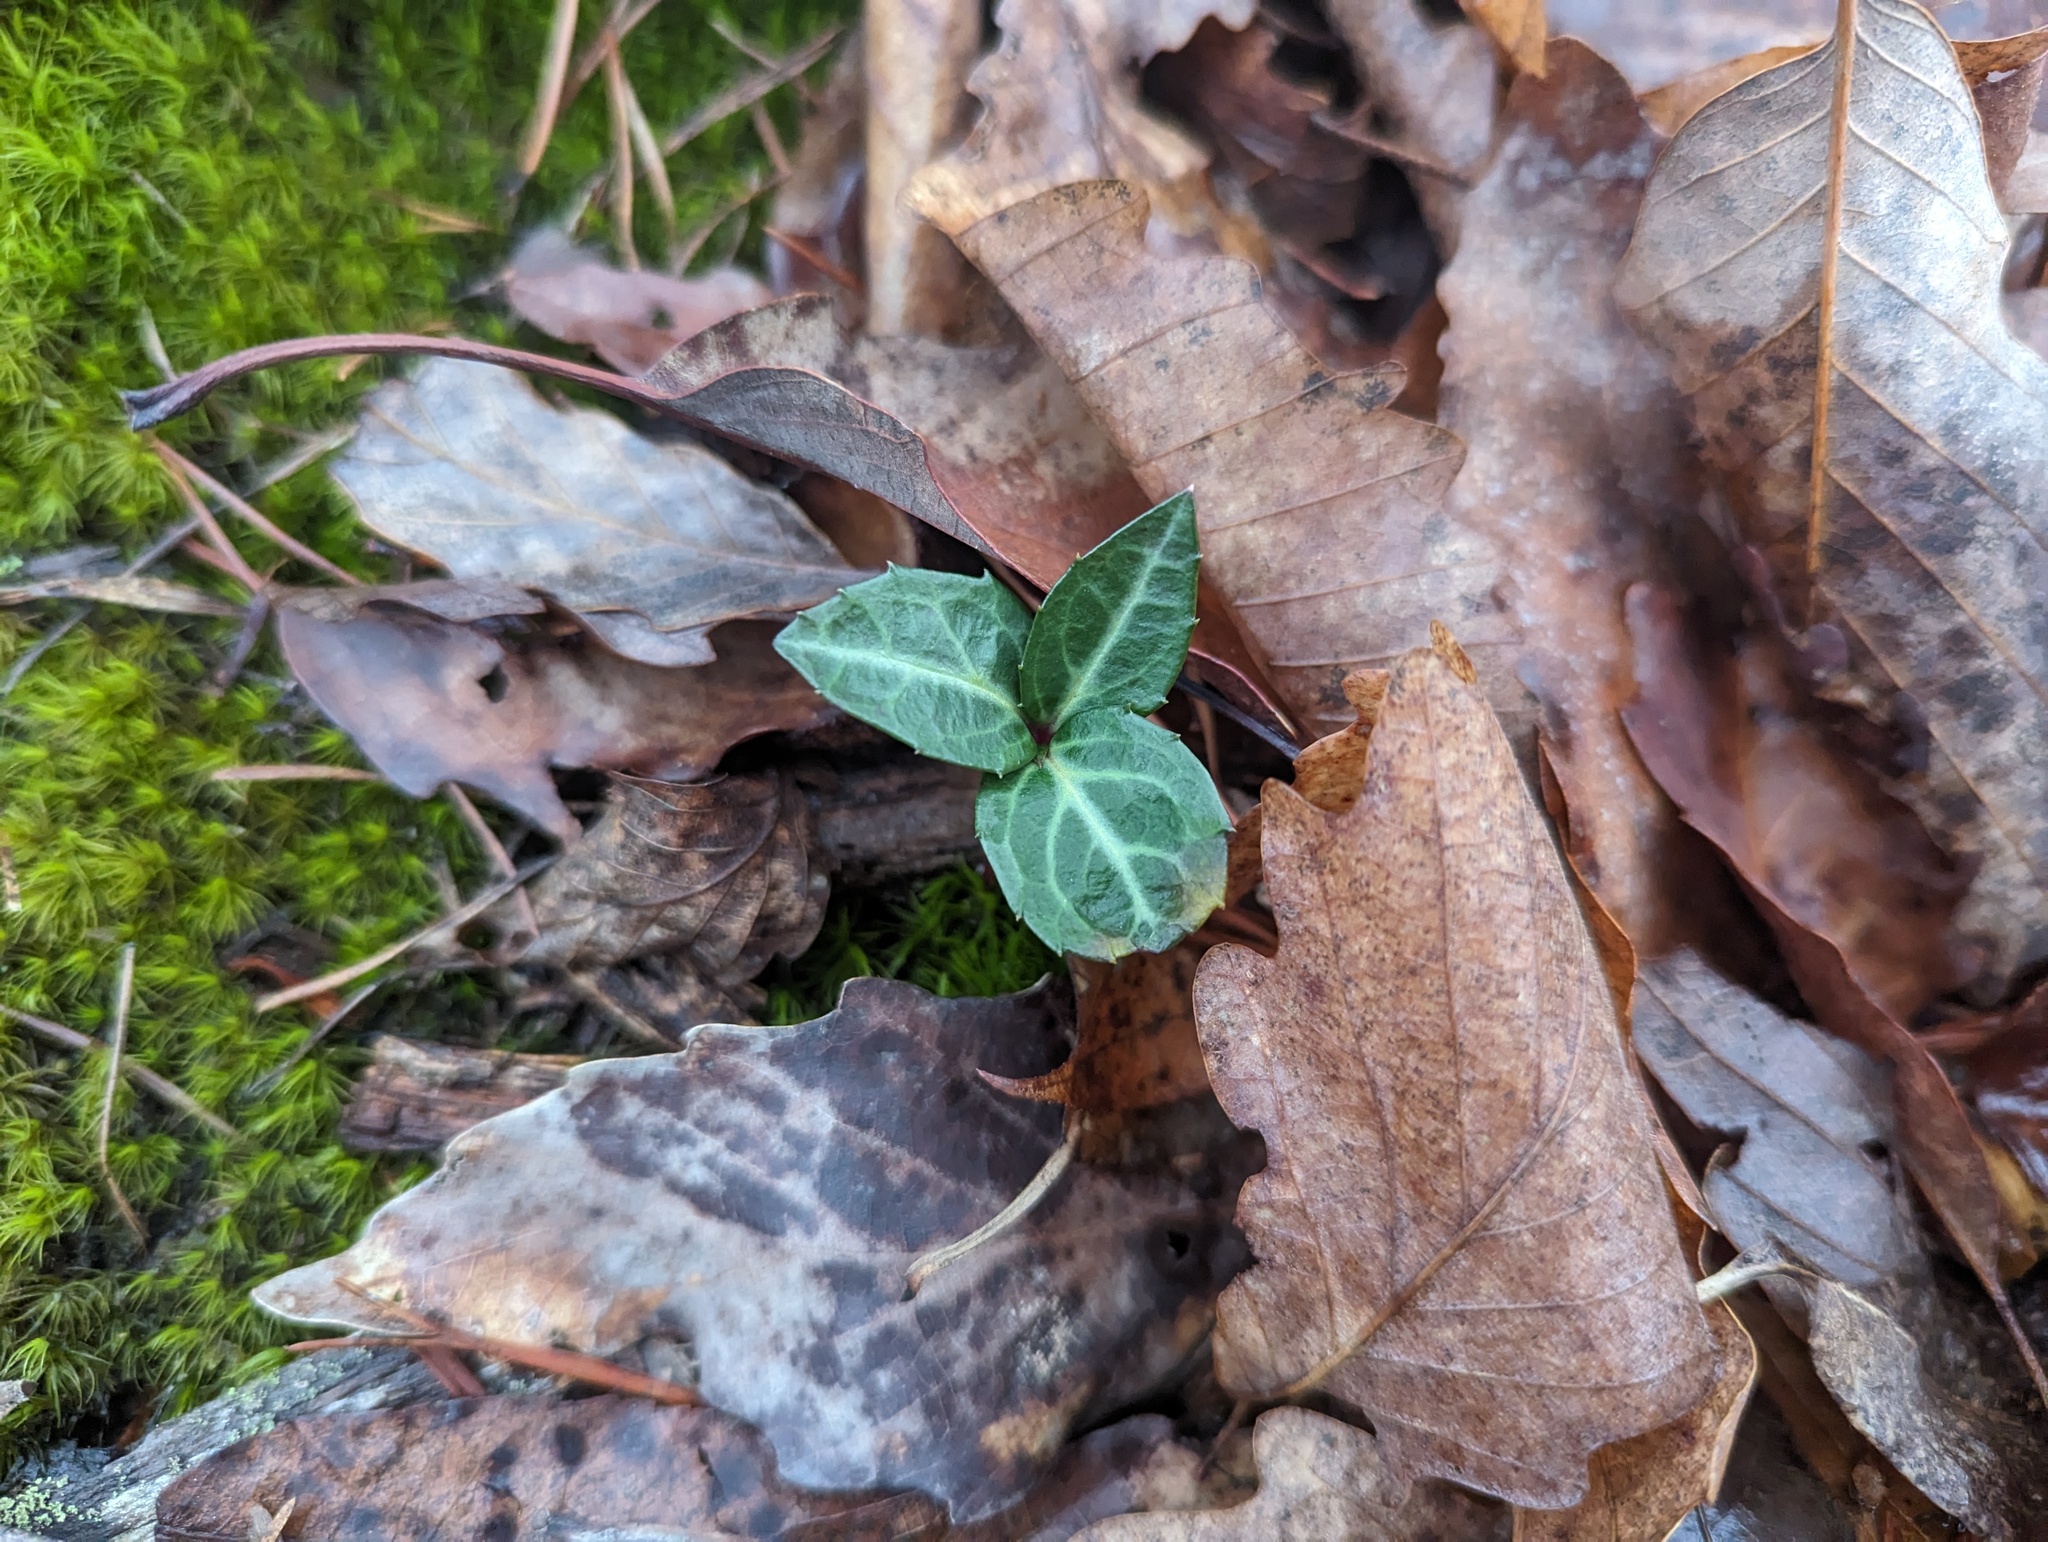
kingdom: Plantae
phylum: Tracheophyta
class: Magnoliopsida
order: Ericales
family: Ericaceae
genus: Chimaphila
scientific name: Chimaphila maculata
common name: Spotted pipsissewa
